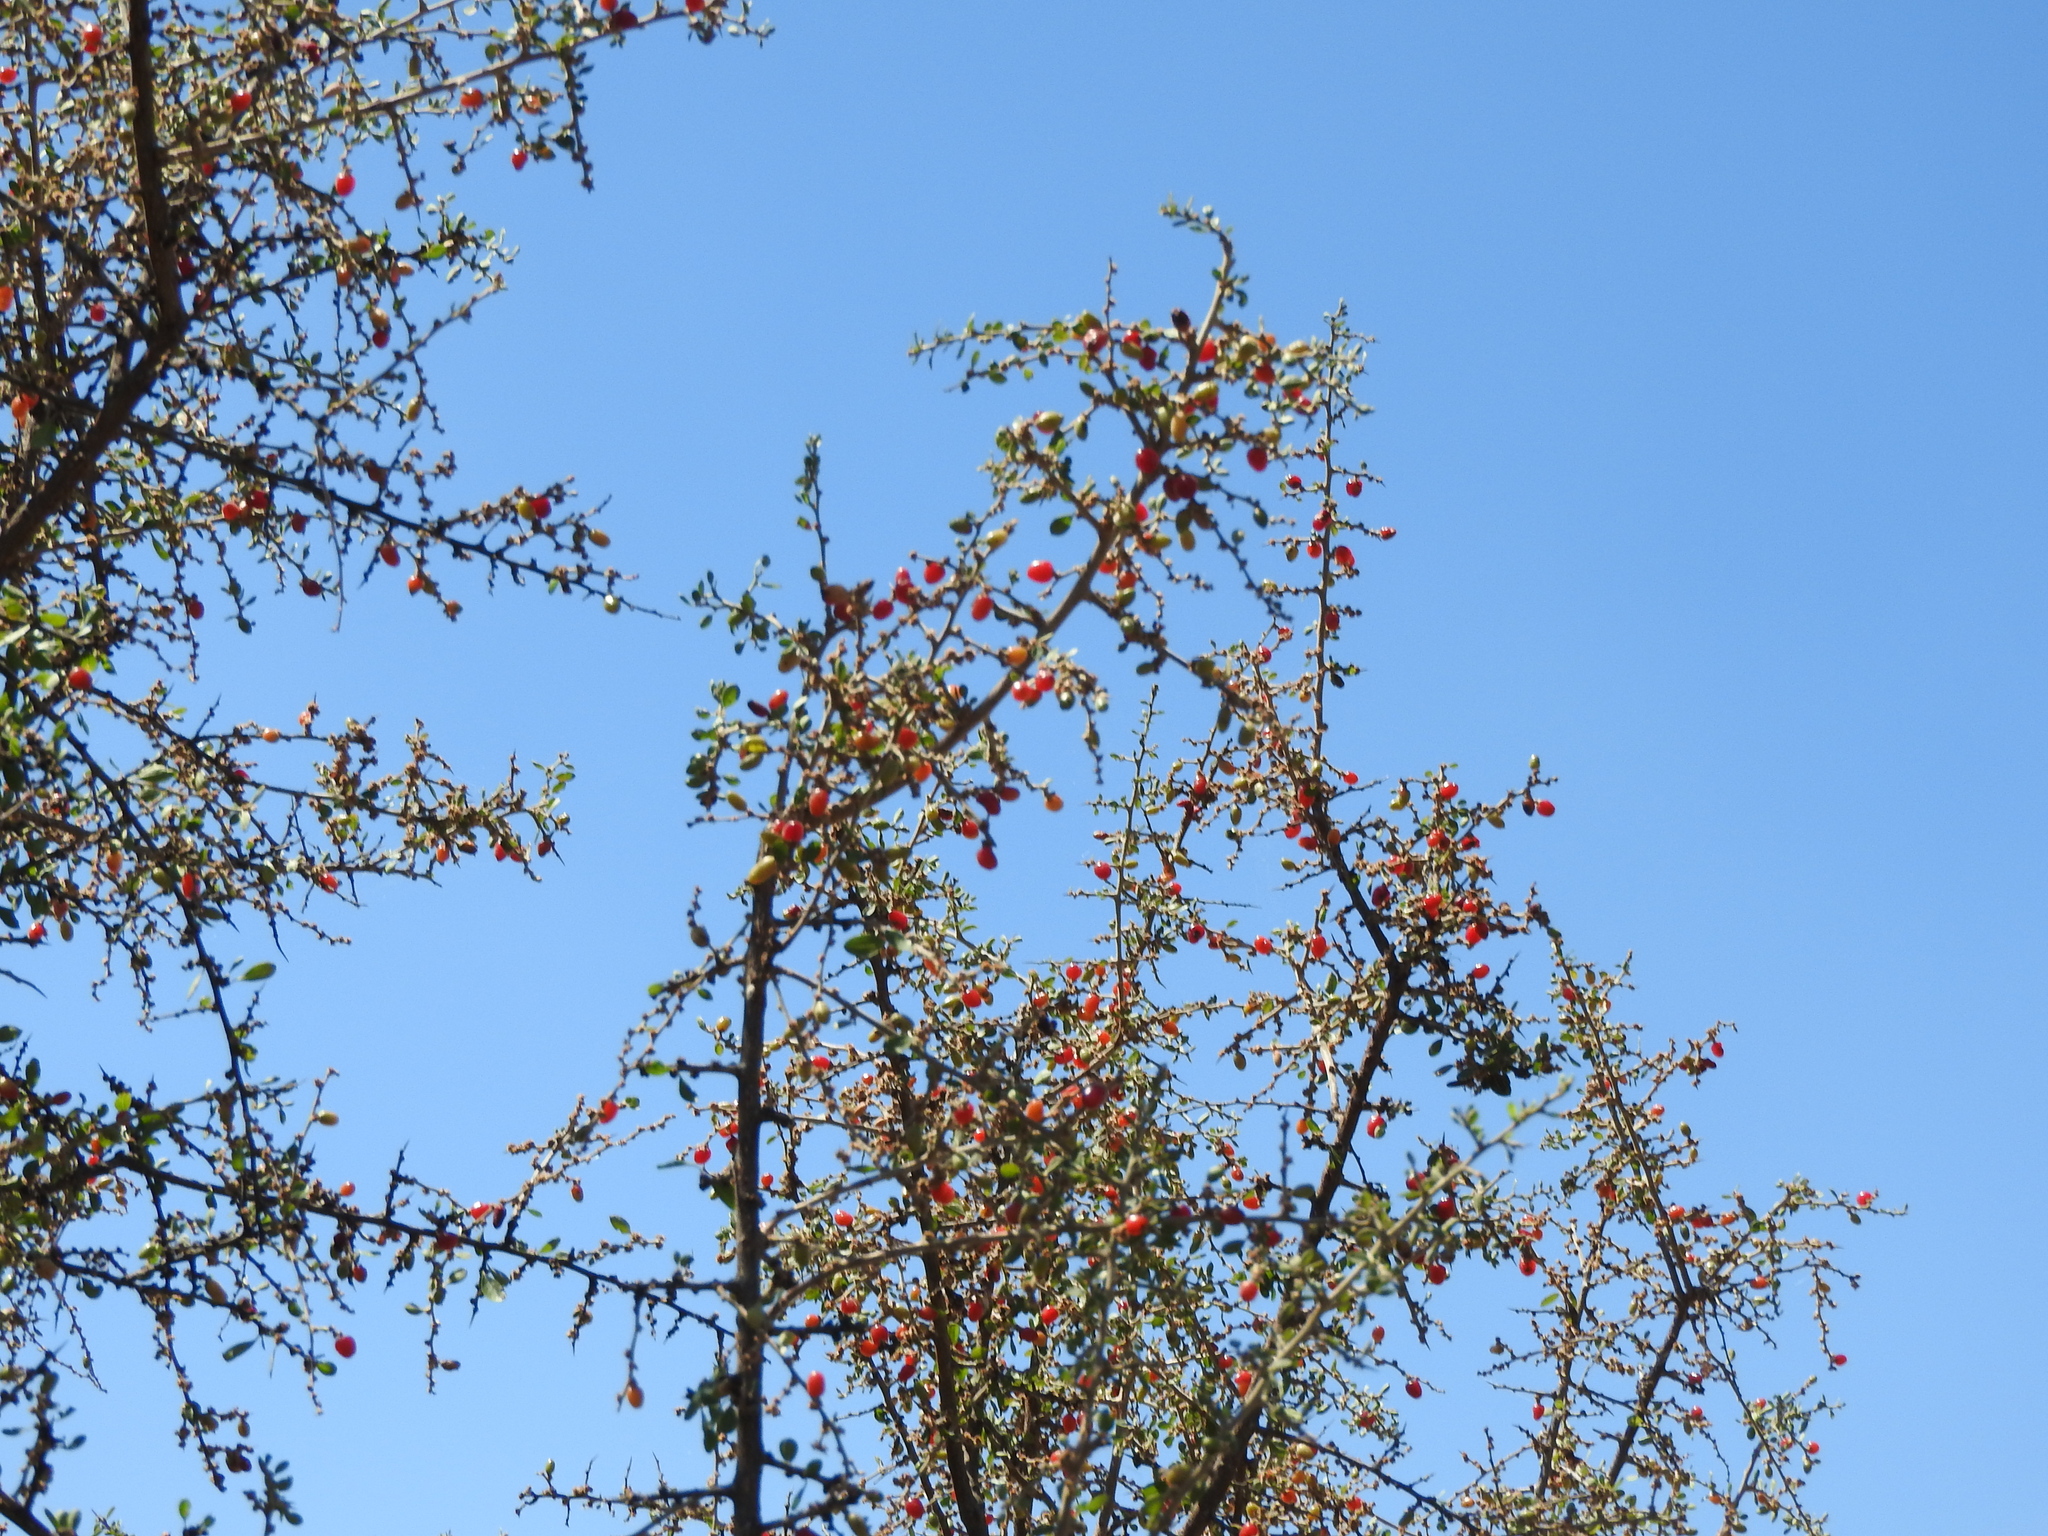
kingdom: Plantae
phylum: Tracheophyta
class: Magnoliopsida
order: Rosales
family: Rhamnaceae
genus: Condalia
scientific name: Condalia velutina
